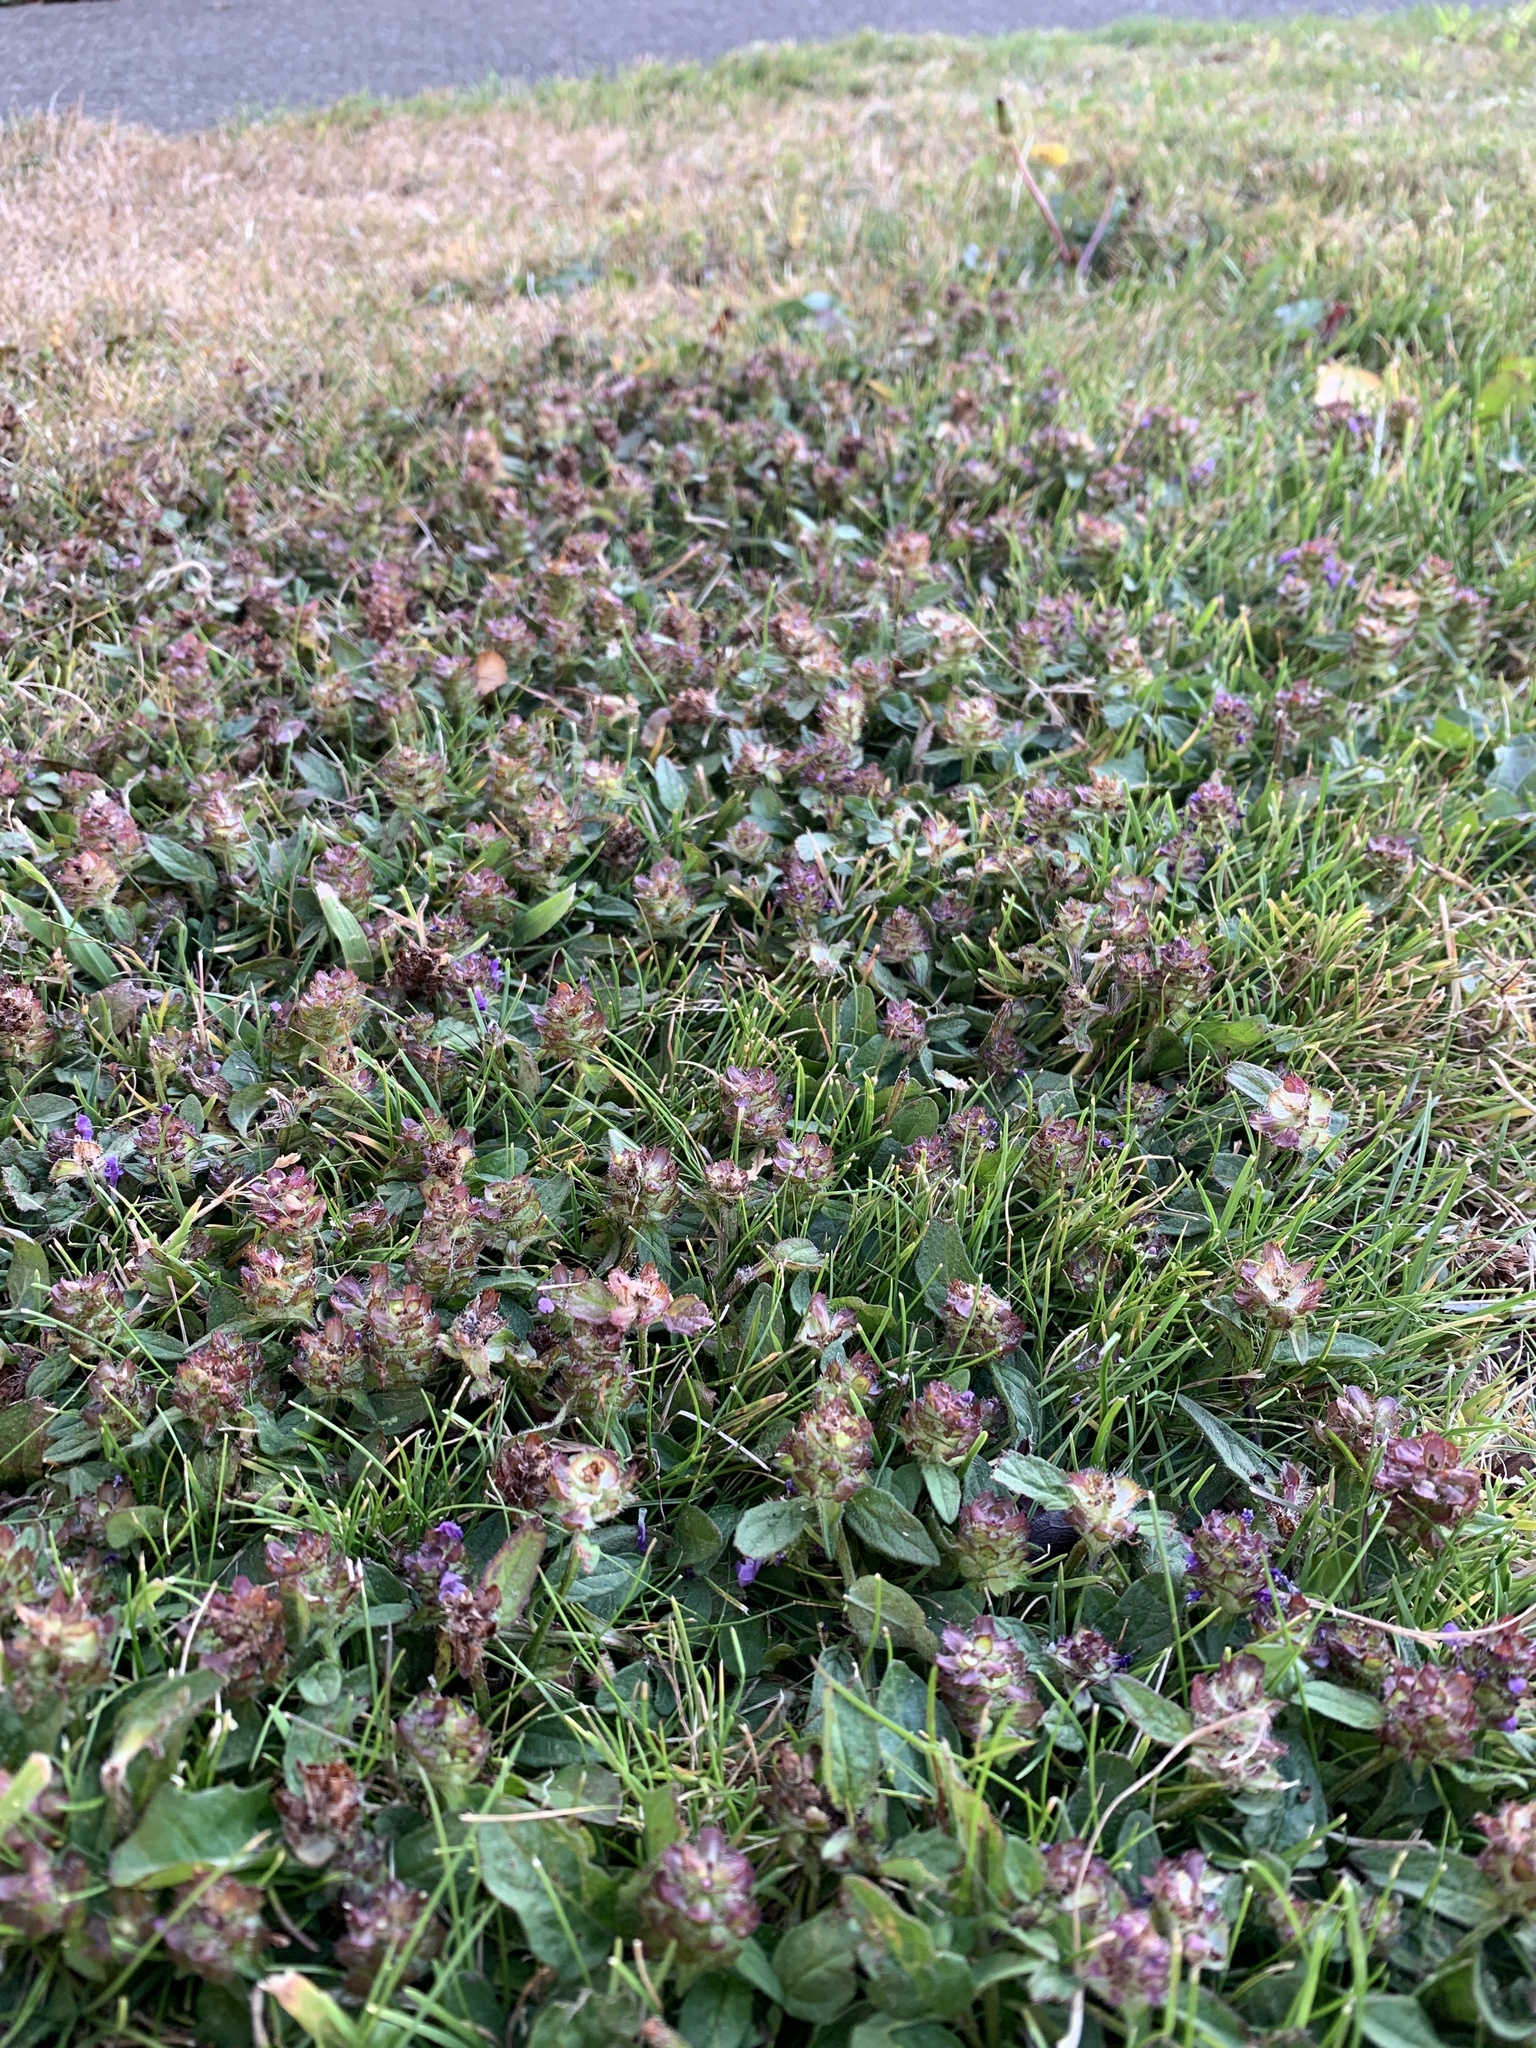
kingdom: Plantae
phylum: Tracheophyta
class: Magnoliopsida
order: Lamiales
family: Lamiaceae
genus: Prunella
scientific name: Prunella vulgaris
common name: Heal-all
